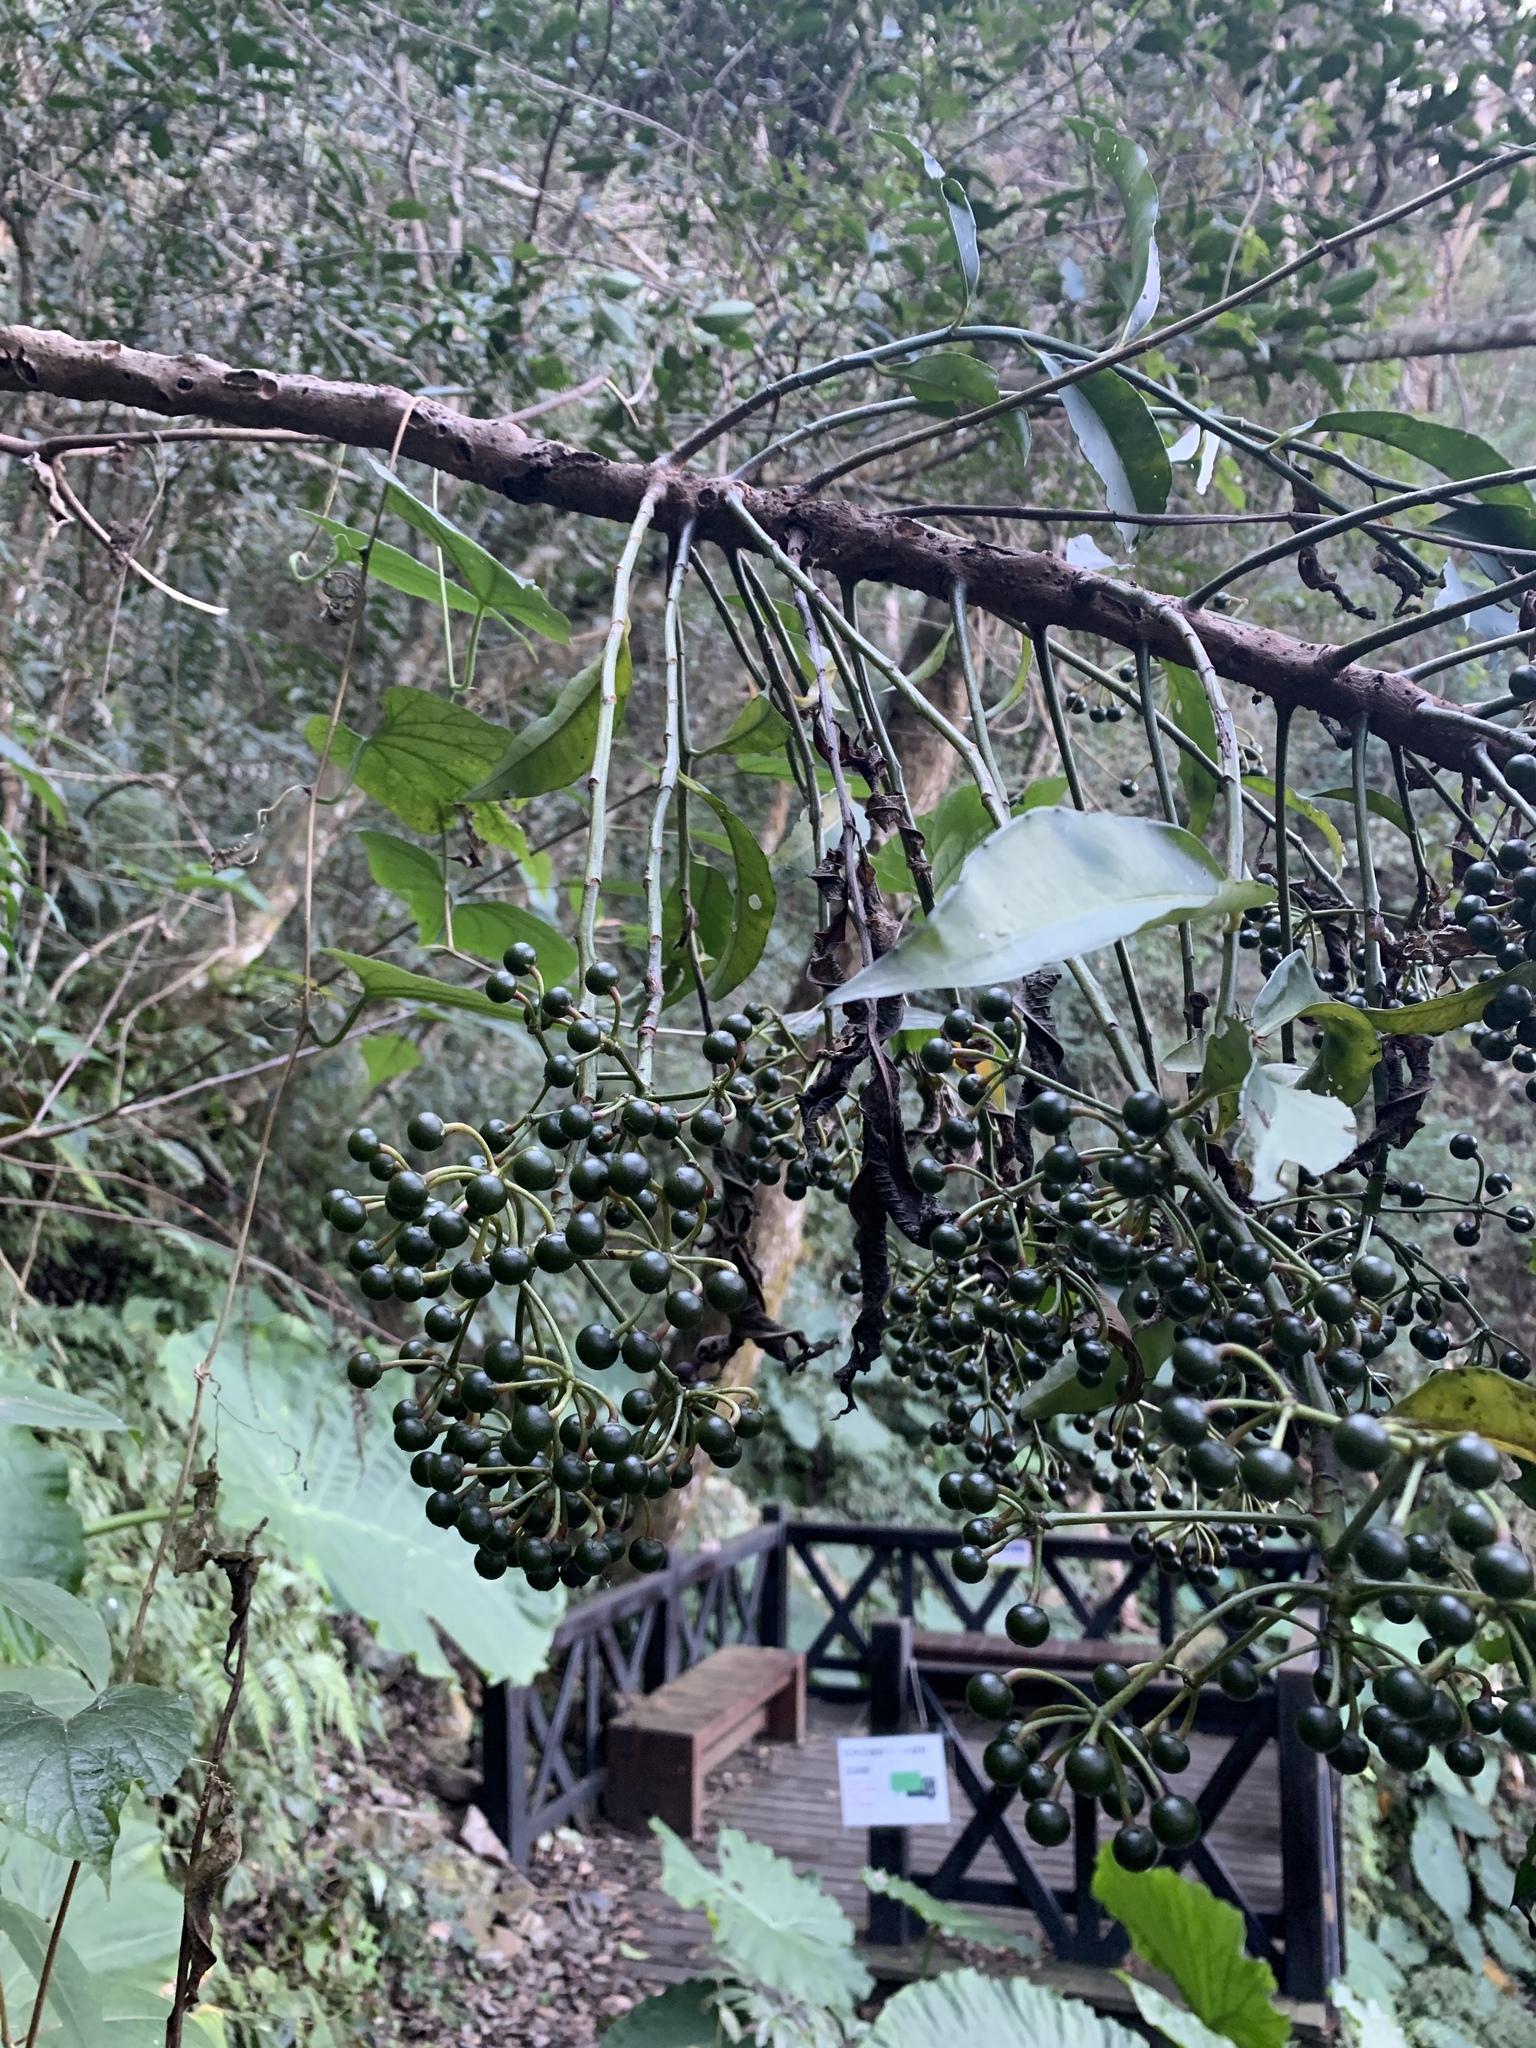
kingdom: Plantae
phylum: Tracheophyta
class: Magnoliopsida
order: Ericales
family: Primulaceae
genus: Ardisia
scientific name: Ardisia polysticta
